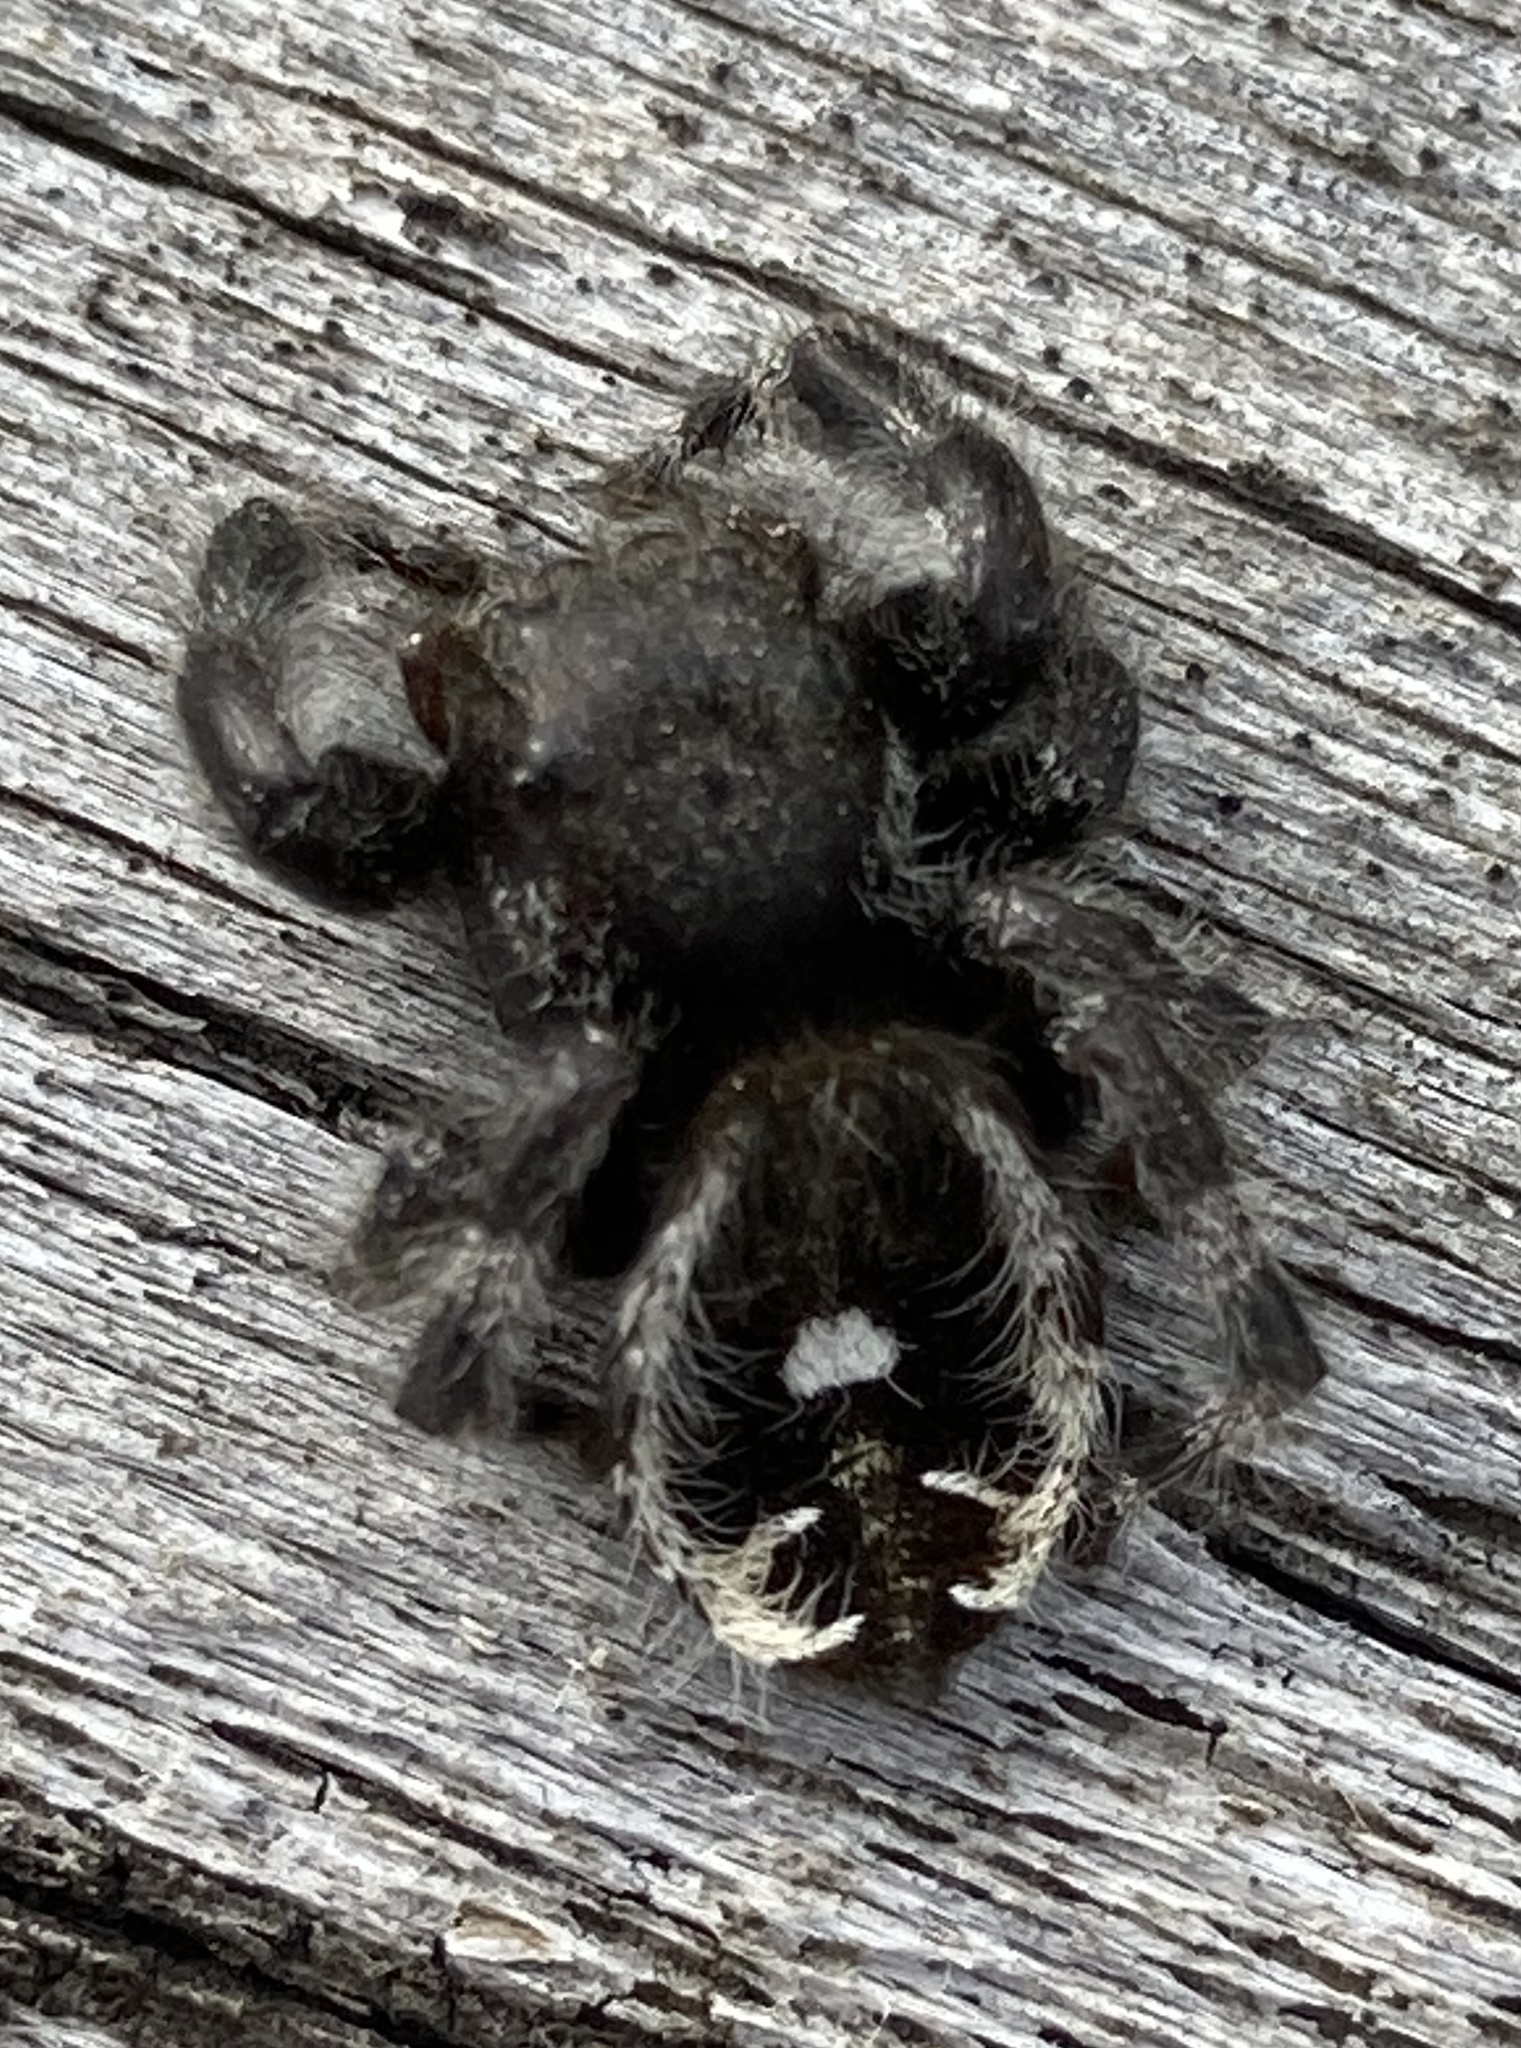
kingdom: Animalia
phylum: Arthropoda
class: Arachnida
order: Araneae
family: Salticidae
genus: Phidippus
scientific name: Phidippus audax
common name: Bold jumper
